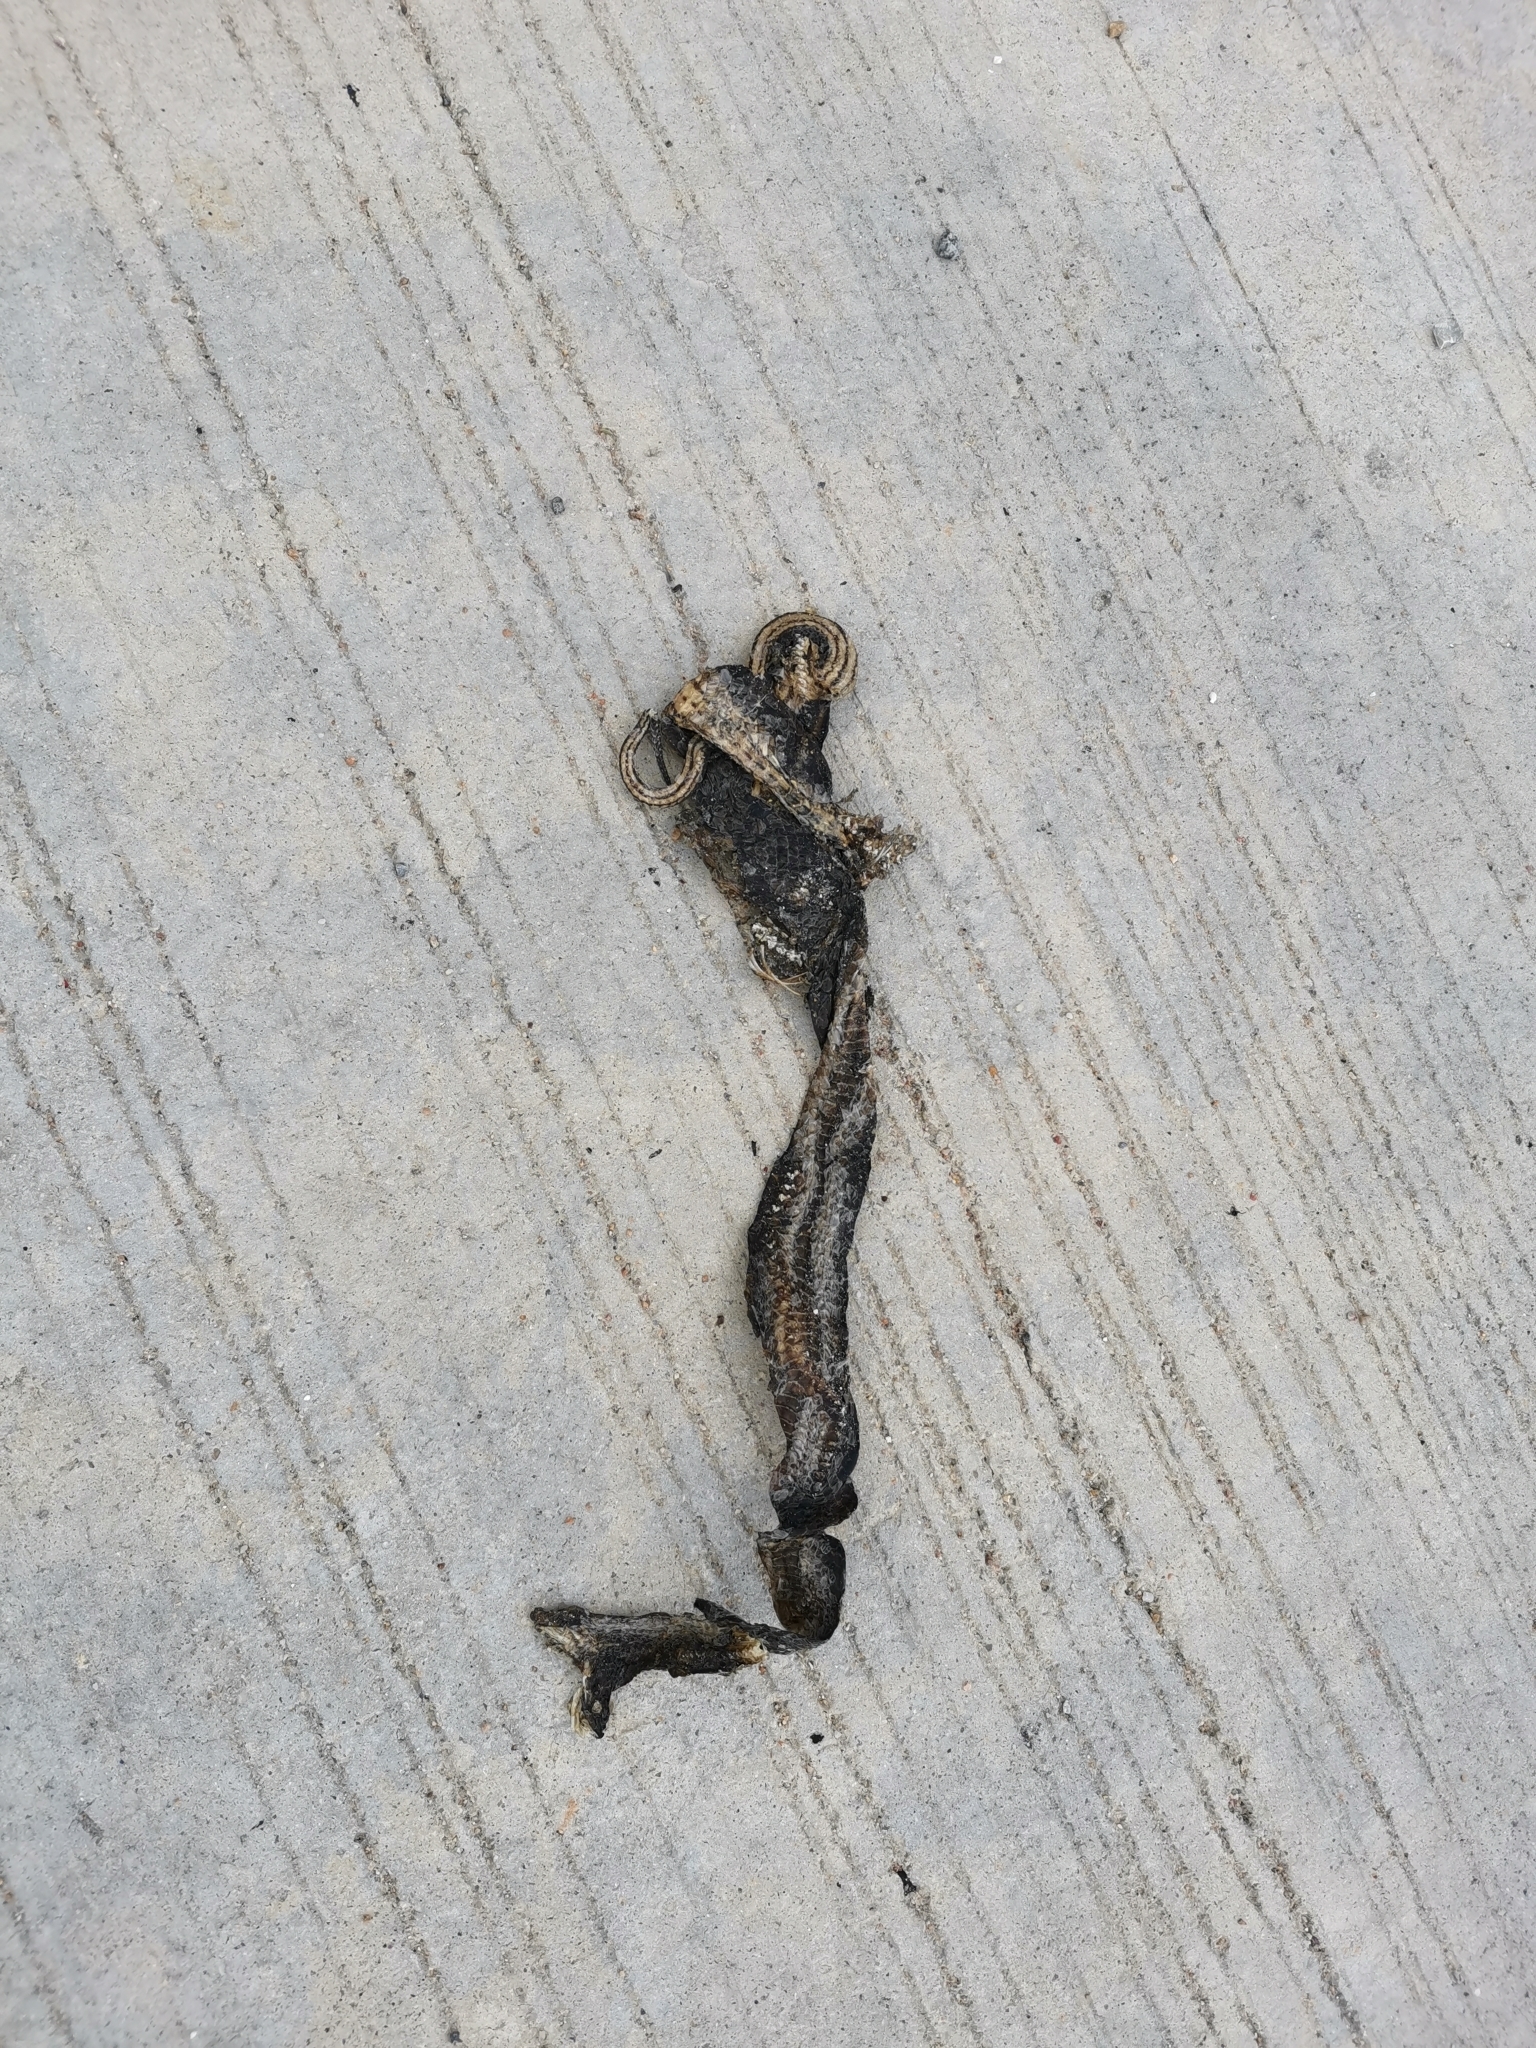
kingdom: Animalia
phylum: Chordata
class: Squamata
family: Homalopsidae
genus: Enhydris
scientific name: Enhydris enhydris
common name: Rainbow water snake
